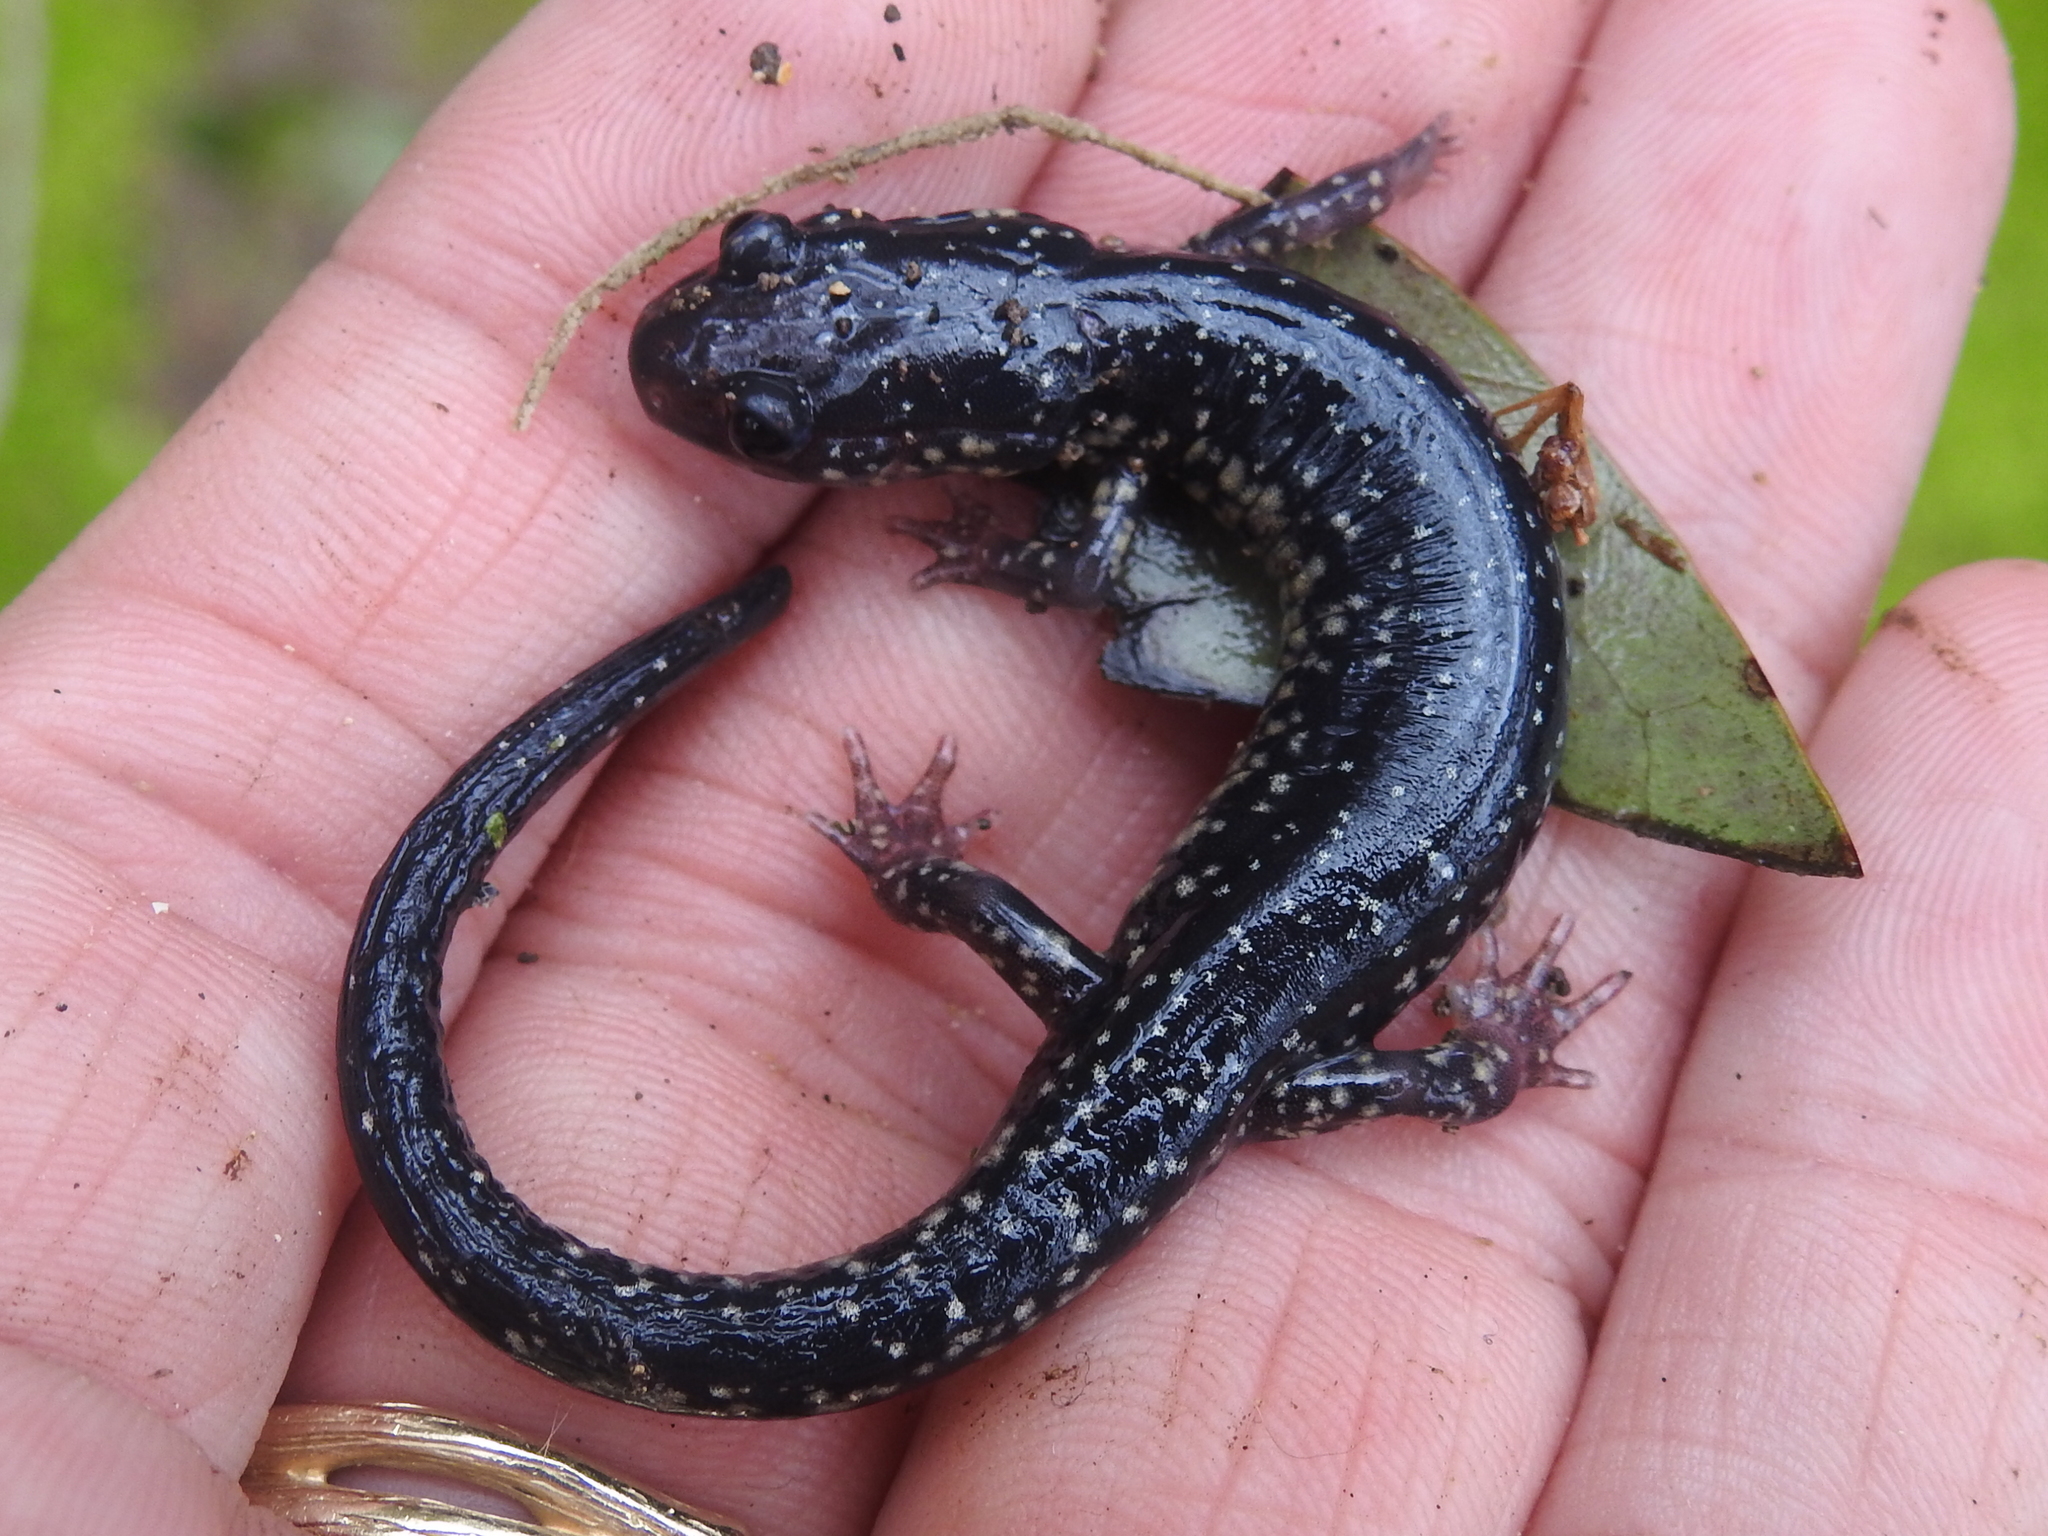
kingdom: Animalia
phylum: Chordata
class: Amphibia
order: Caudata
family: Plethodontidae
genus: Plethodon
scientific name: Plethodon albagula
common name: Western slimy salamander
